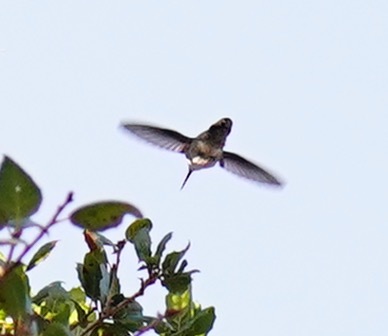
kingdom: Animalia
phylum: Chordata
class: Aves
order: Apodiformes
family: Trochilidae
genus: Calypte
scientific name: Calypte anna
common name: Anna's hummingbird
